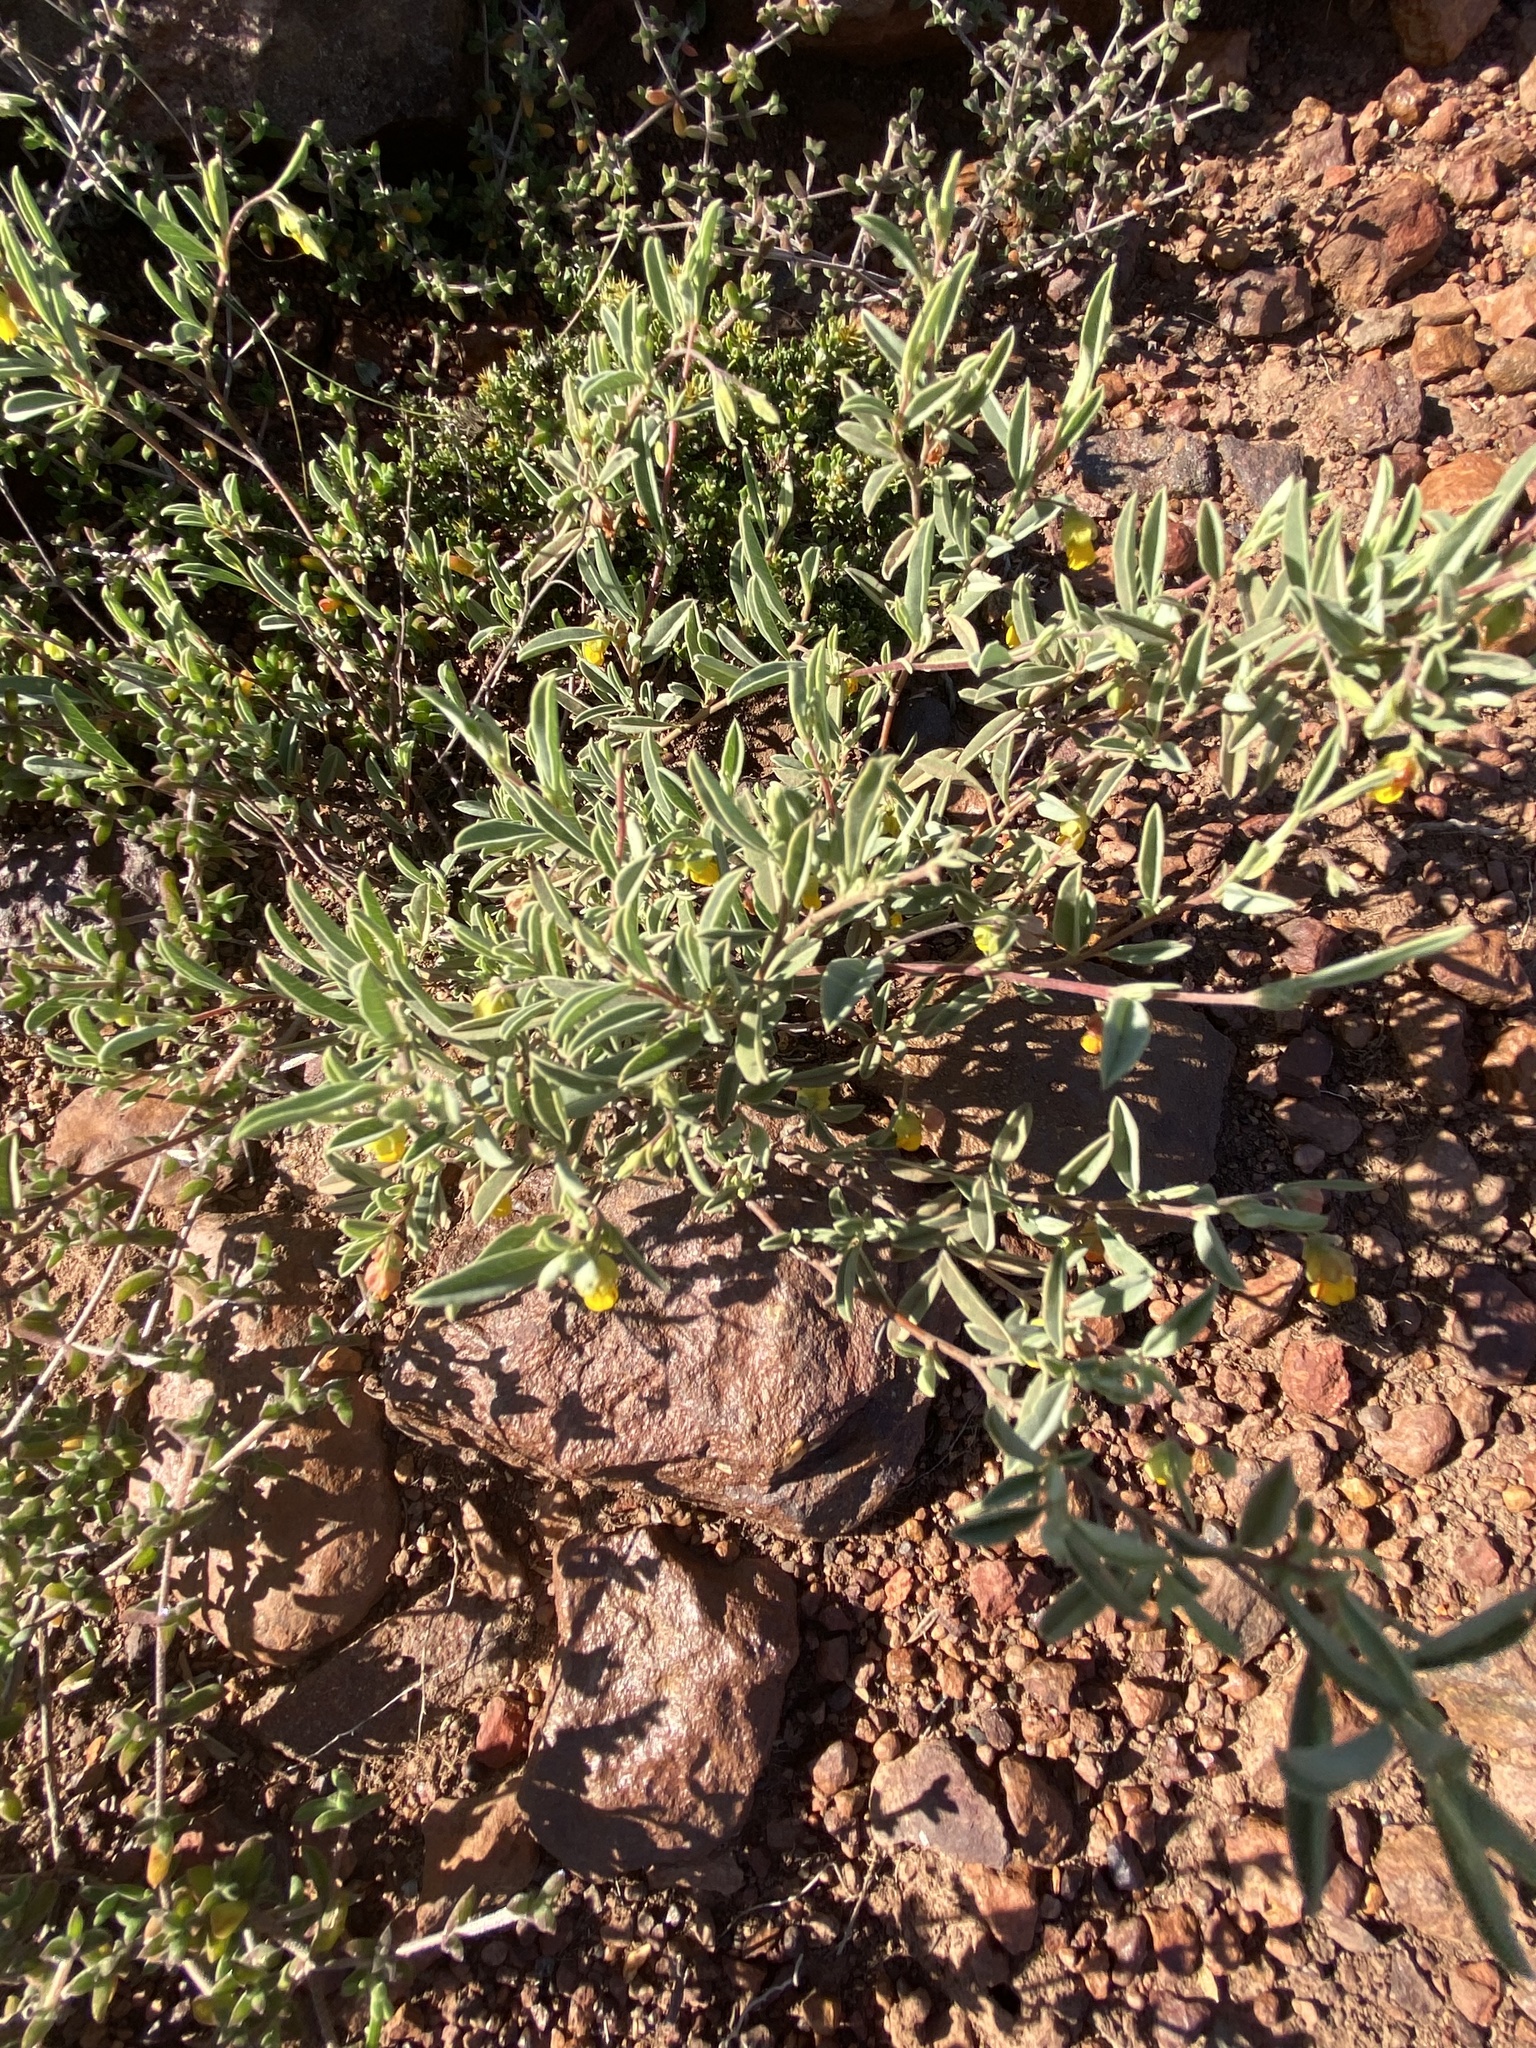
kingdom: Plantae
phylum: Tracheophyta
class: Magnoliopsida
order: Malvales
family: Malvaceae
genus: Hermannia
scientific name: Hermannia lavandulifolia
